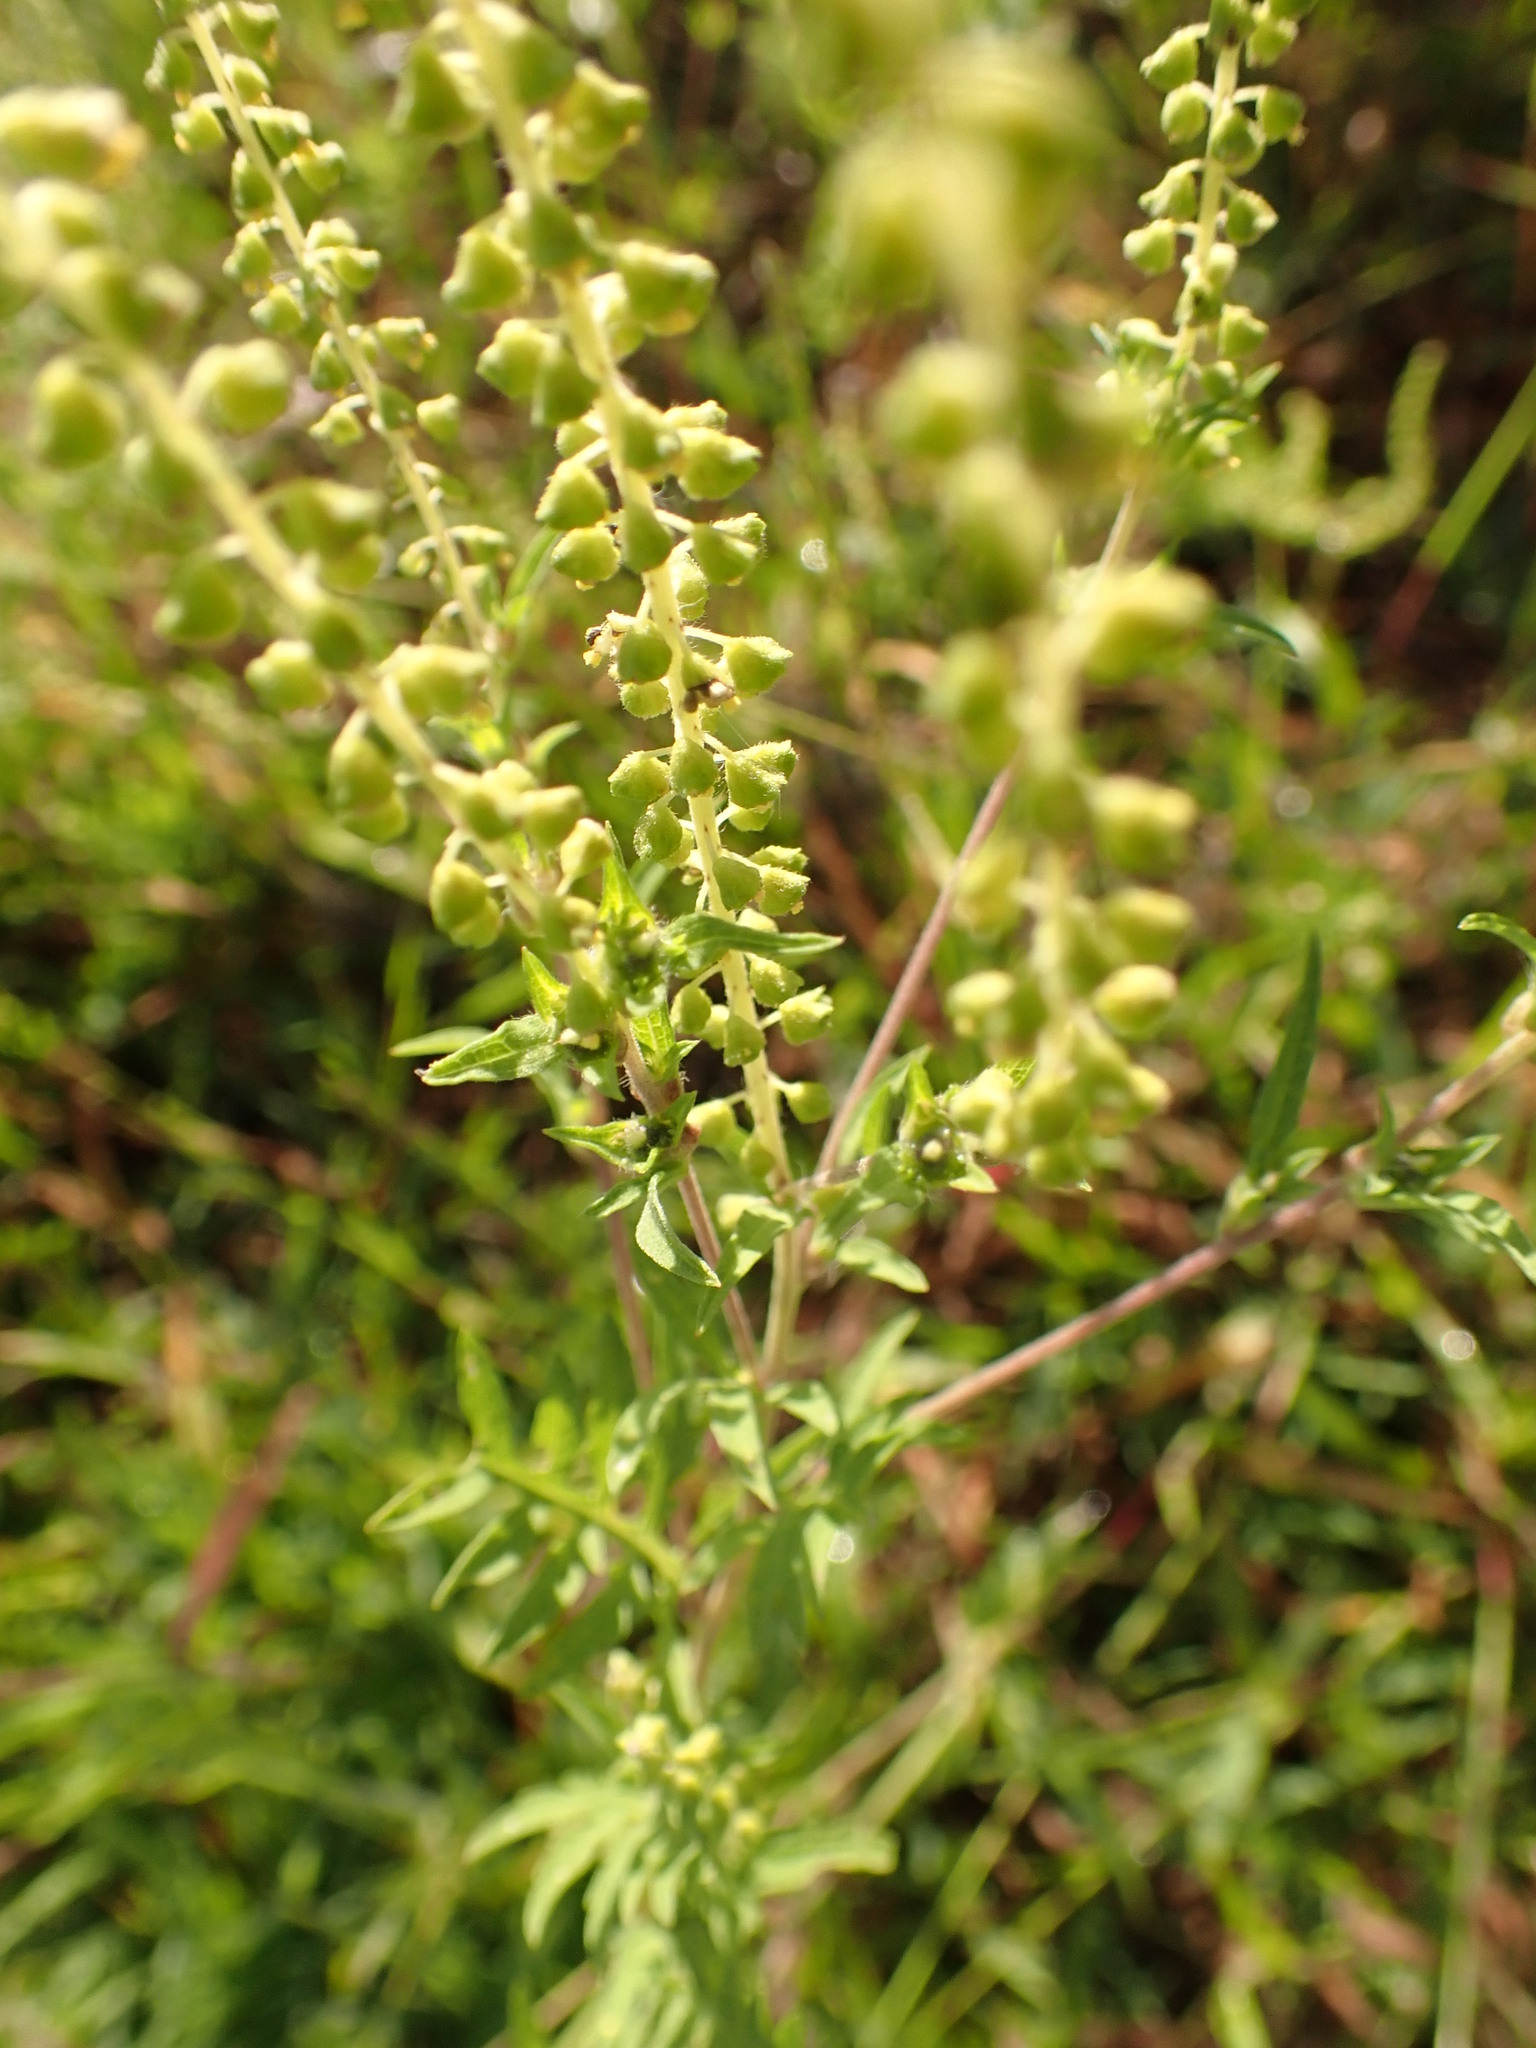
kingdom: Plantae
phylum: Tracheophyta
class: Magnoliopsida
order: Asterales
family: Asteraceae
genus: Ambrosia
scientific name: Ambrosia artemisiifolia
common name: Annual ragweed
